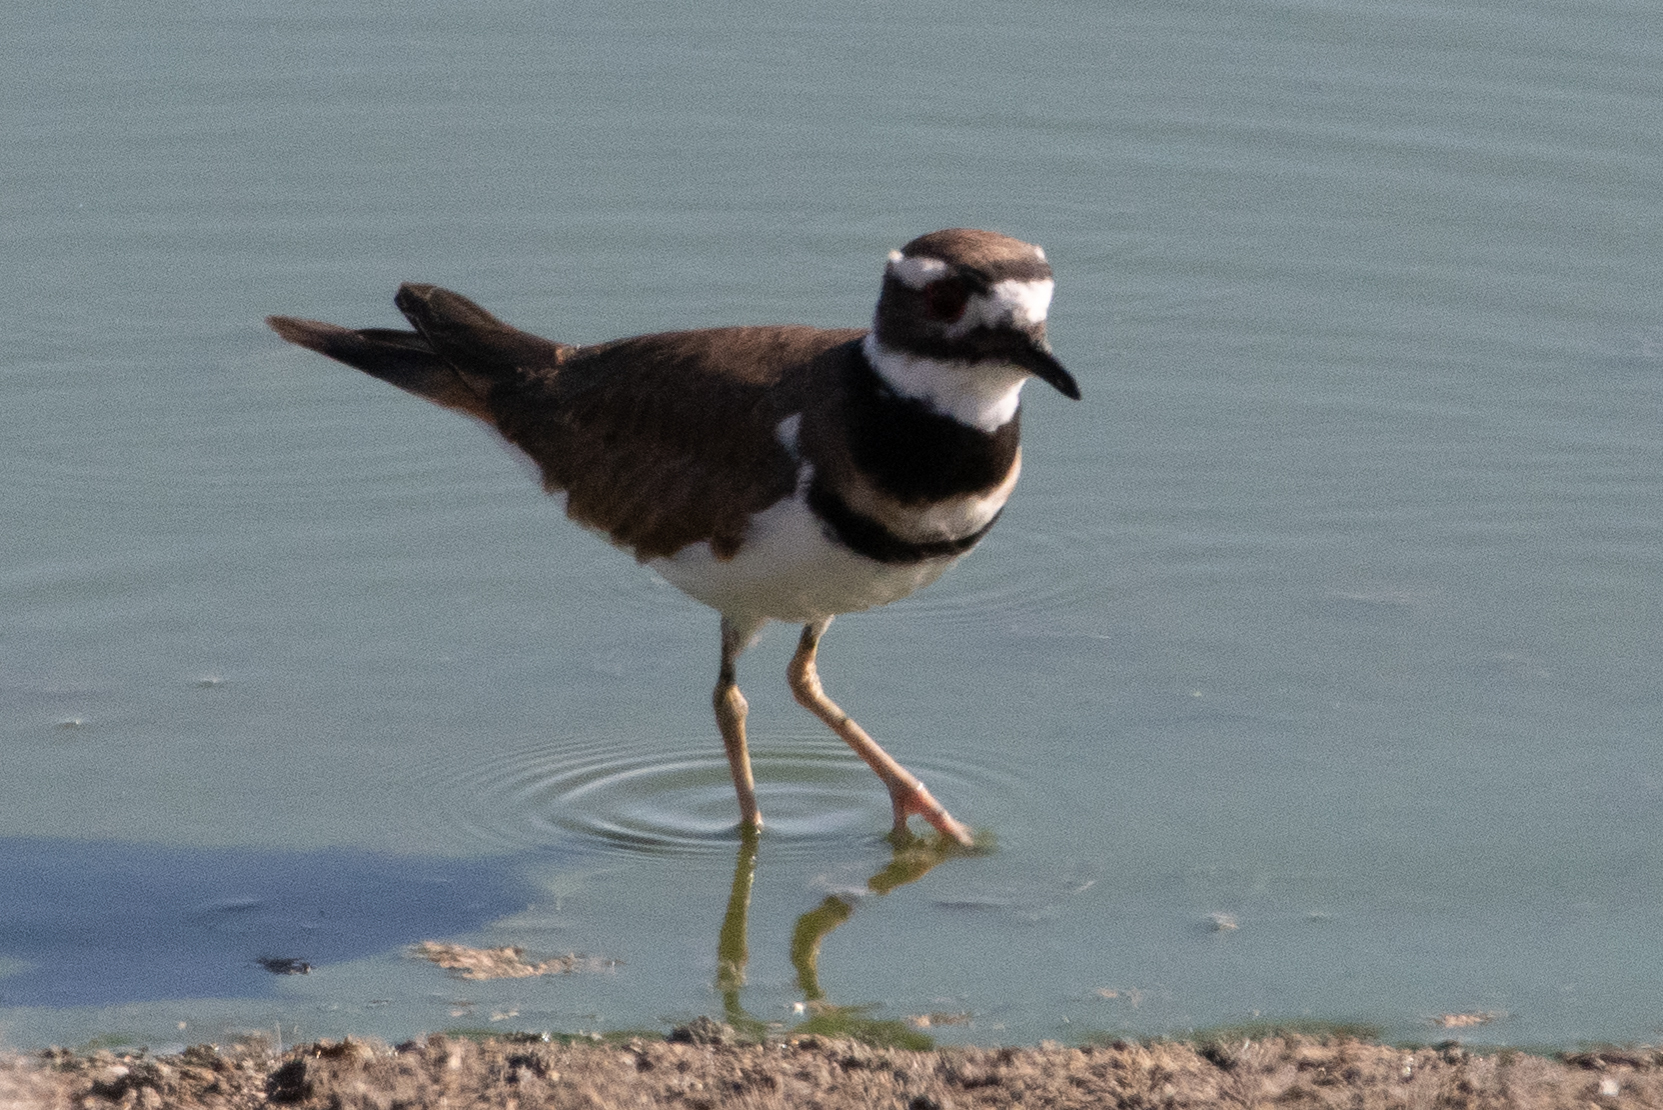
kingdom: Animalia
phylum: Chordata
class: Aves
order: Charadriiformes
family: Charadriidae
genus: Charadrius
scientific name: Charadrius vociferus
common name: Killdeer
